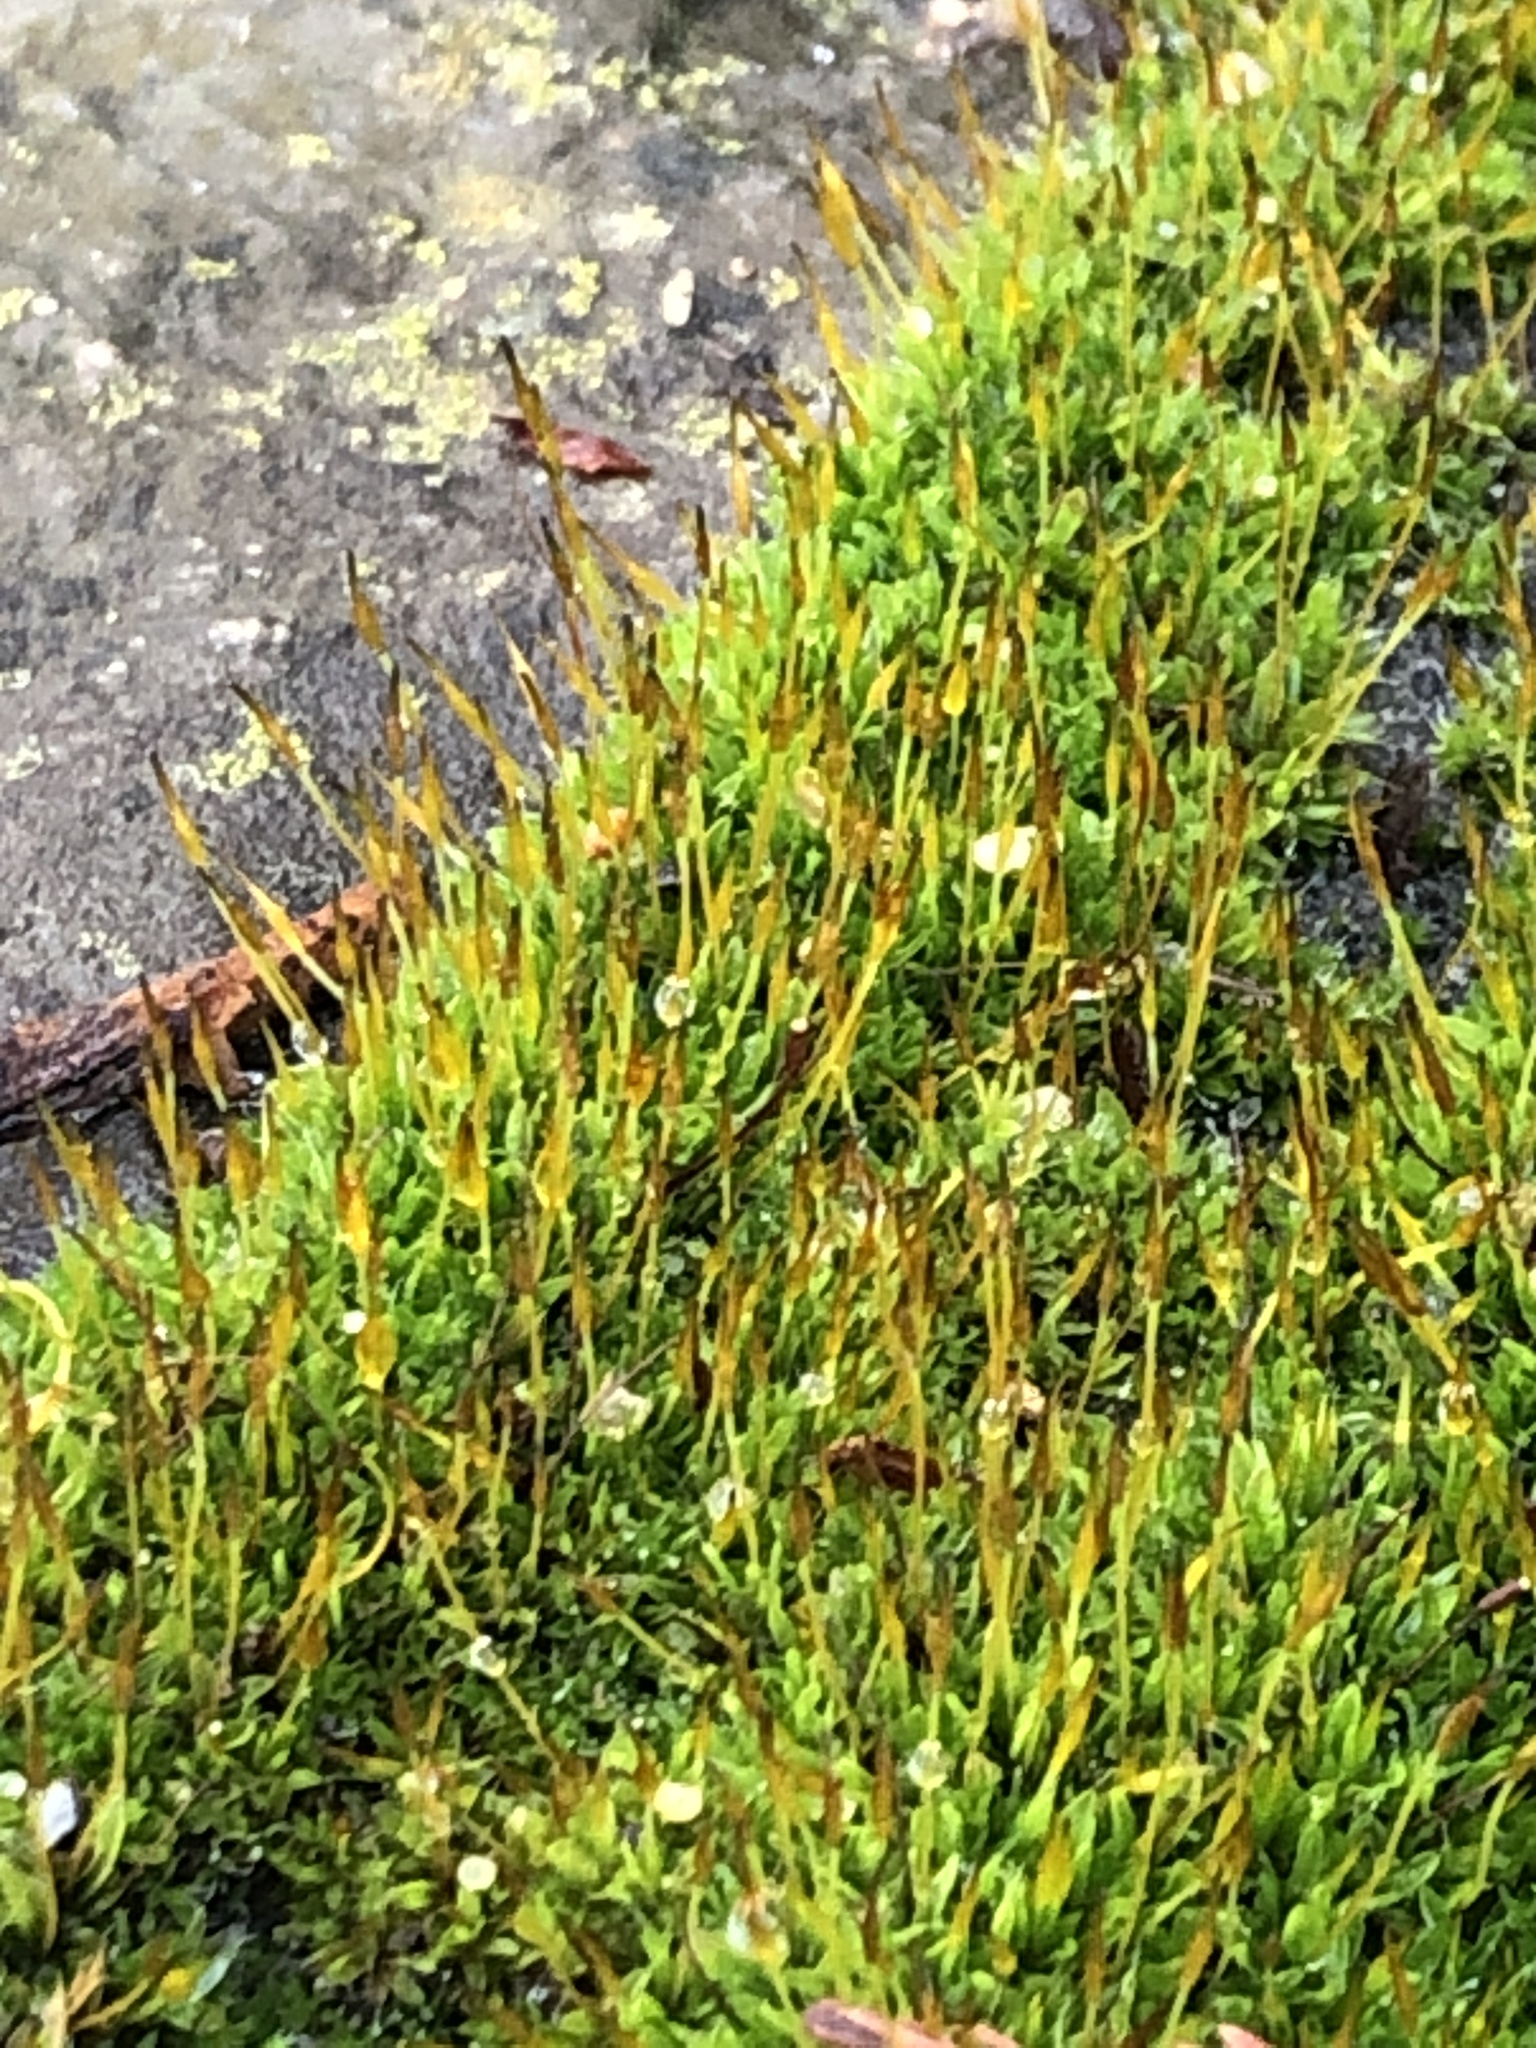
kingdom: Plantae
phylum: Bryophyta
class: Bryopsida
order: Pottiales
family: Pottiaceae
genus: Tortula
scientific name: Tortula muralis
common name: Wall screw-moss
